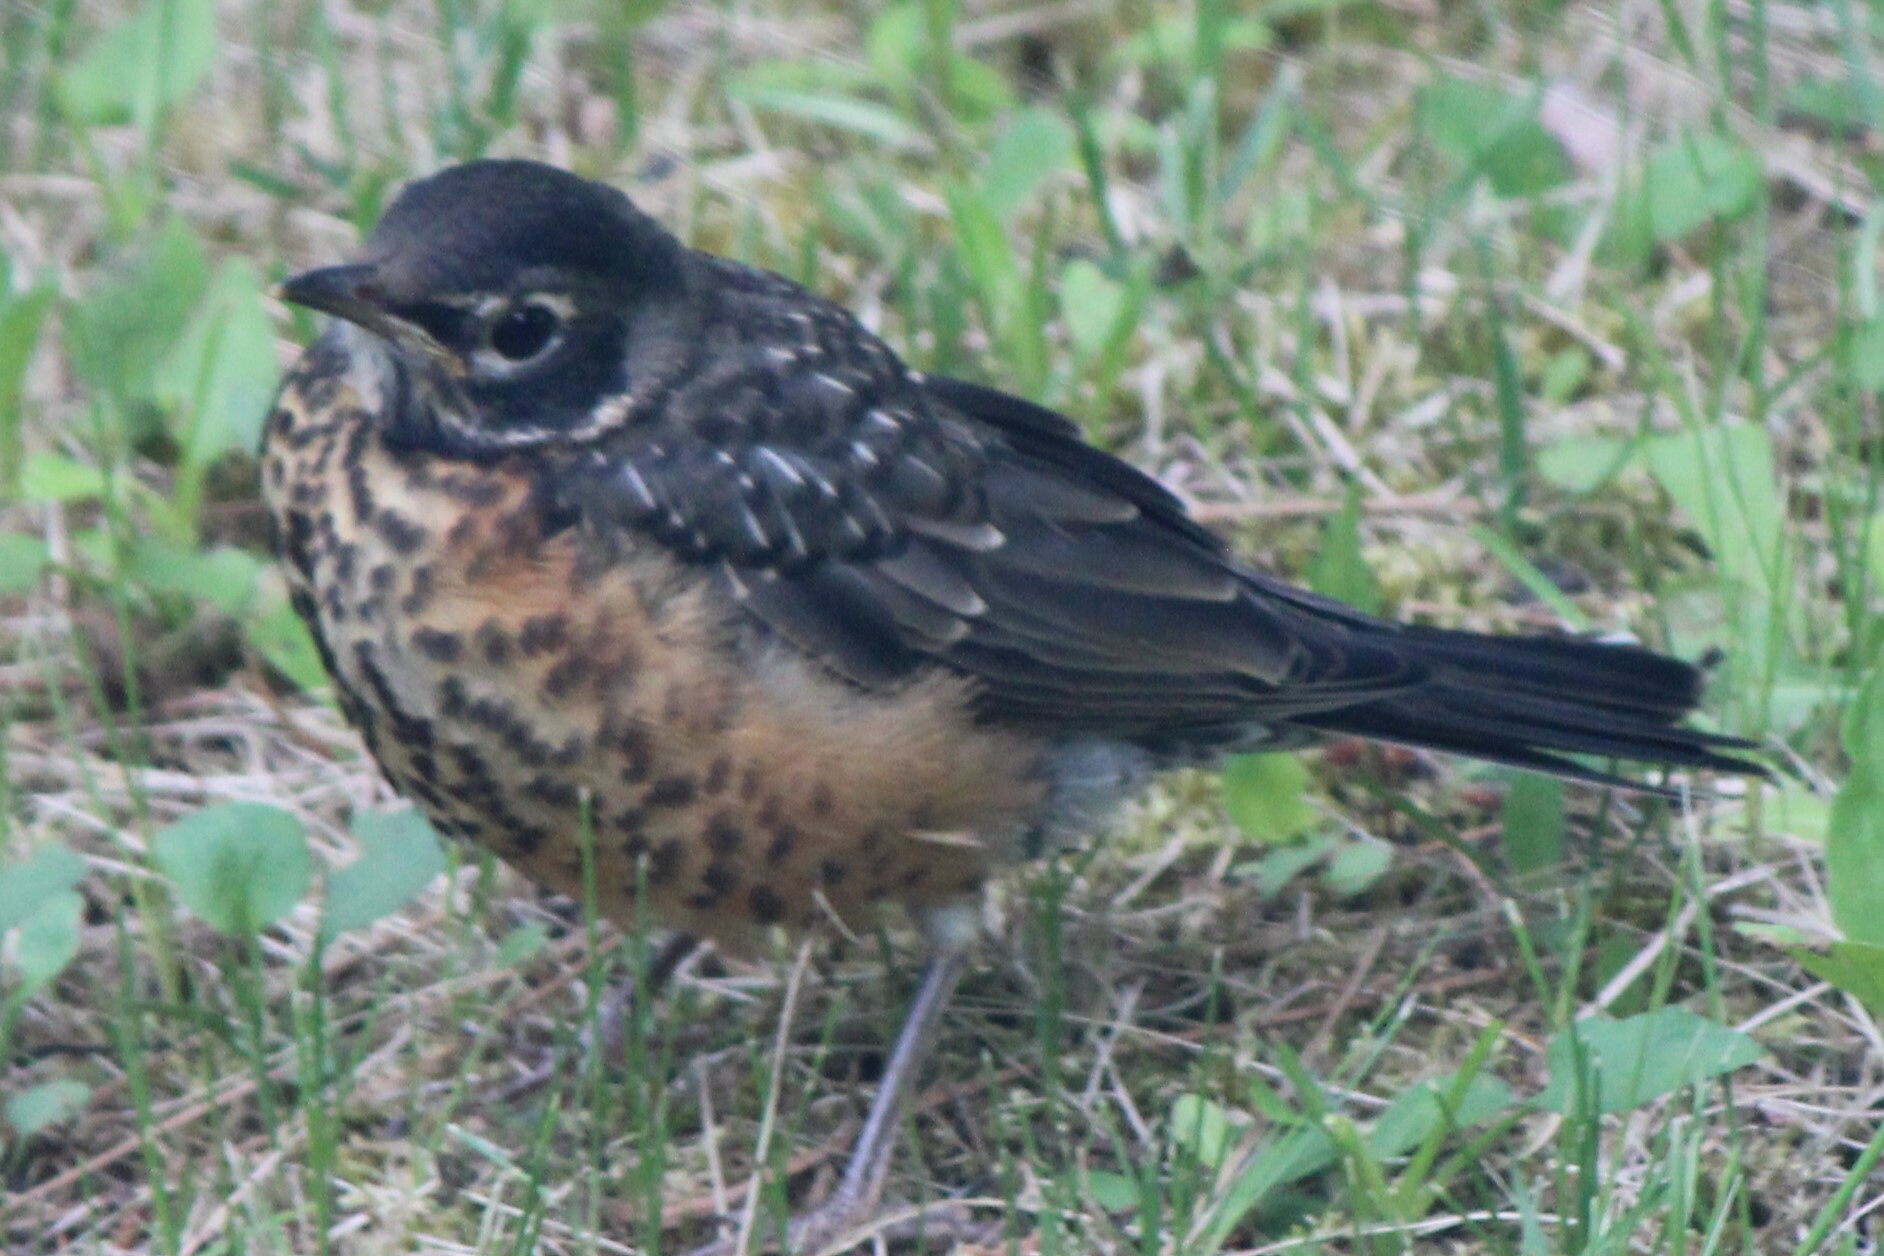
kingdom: Animalia
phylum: Chordata
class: Aves
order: Passeriformes
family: Turdidae
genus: Turdus
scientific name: Turdus migratorius
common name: American robin
